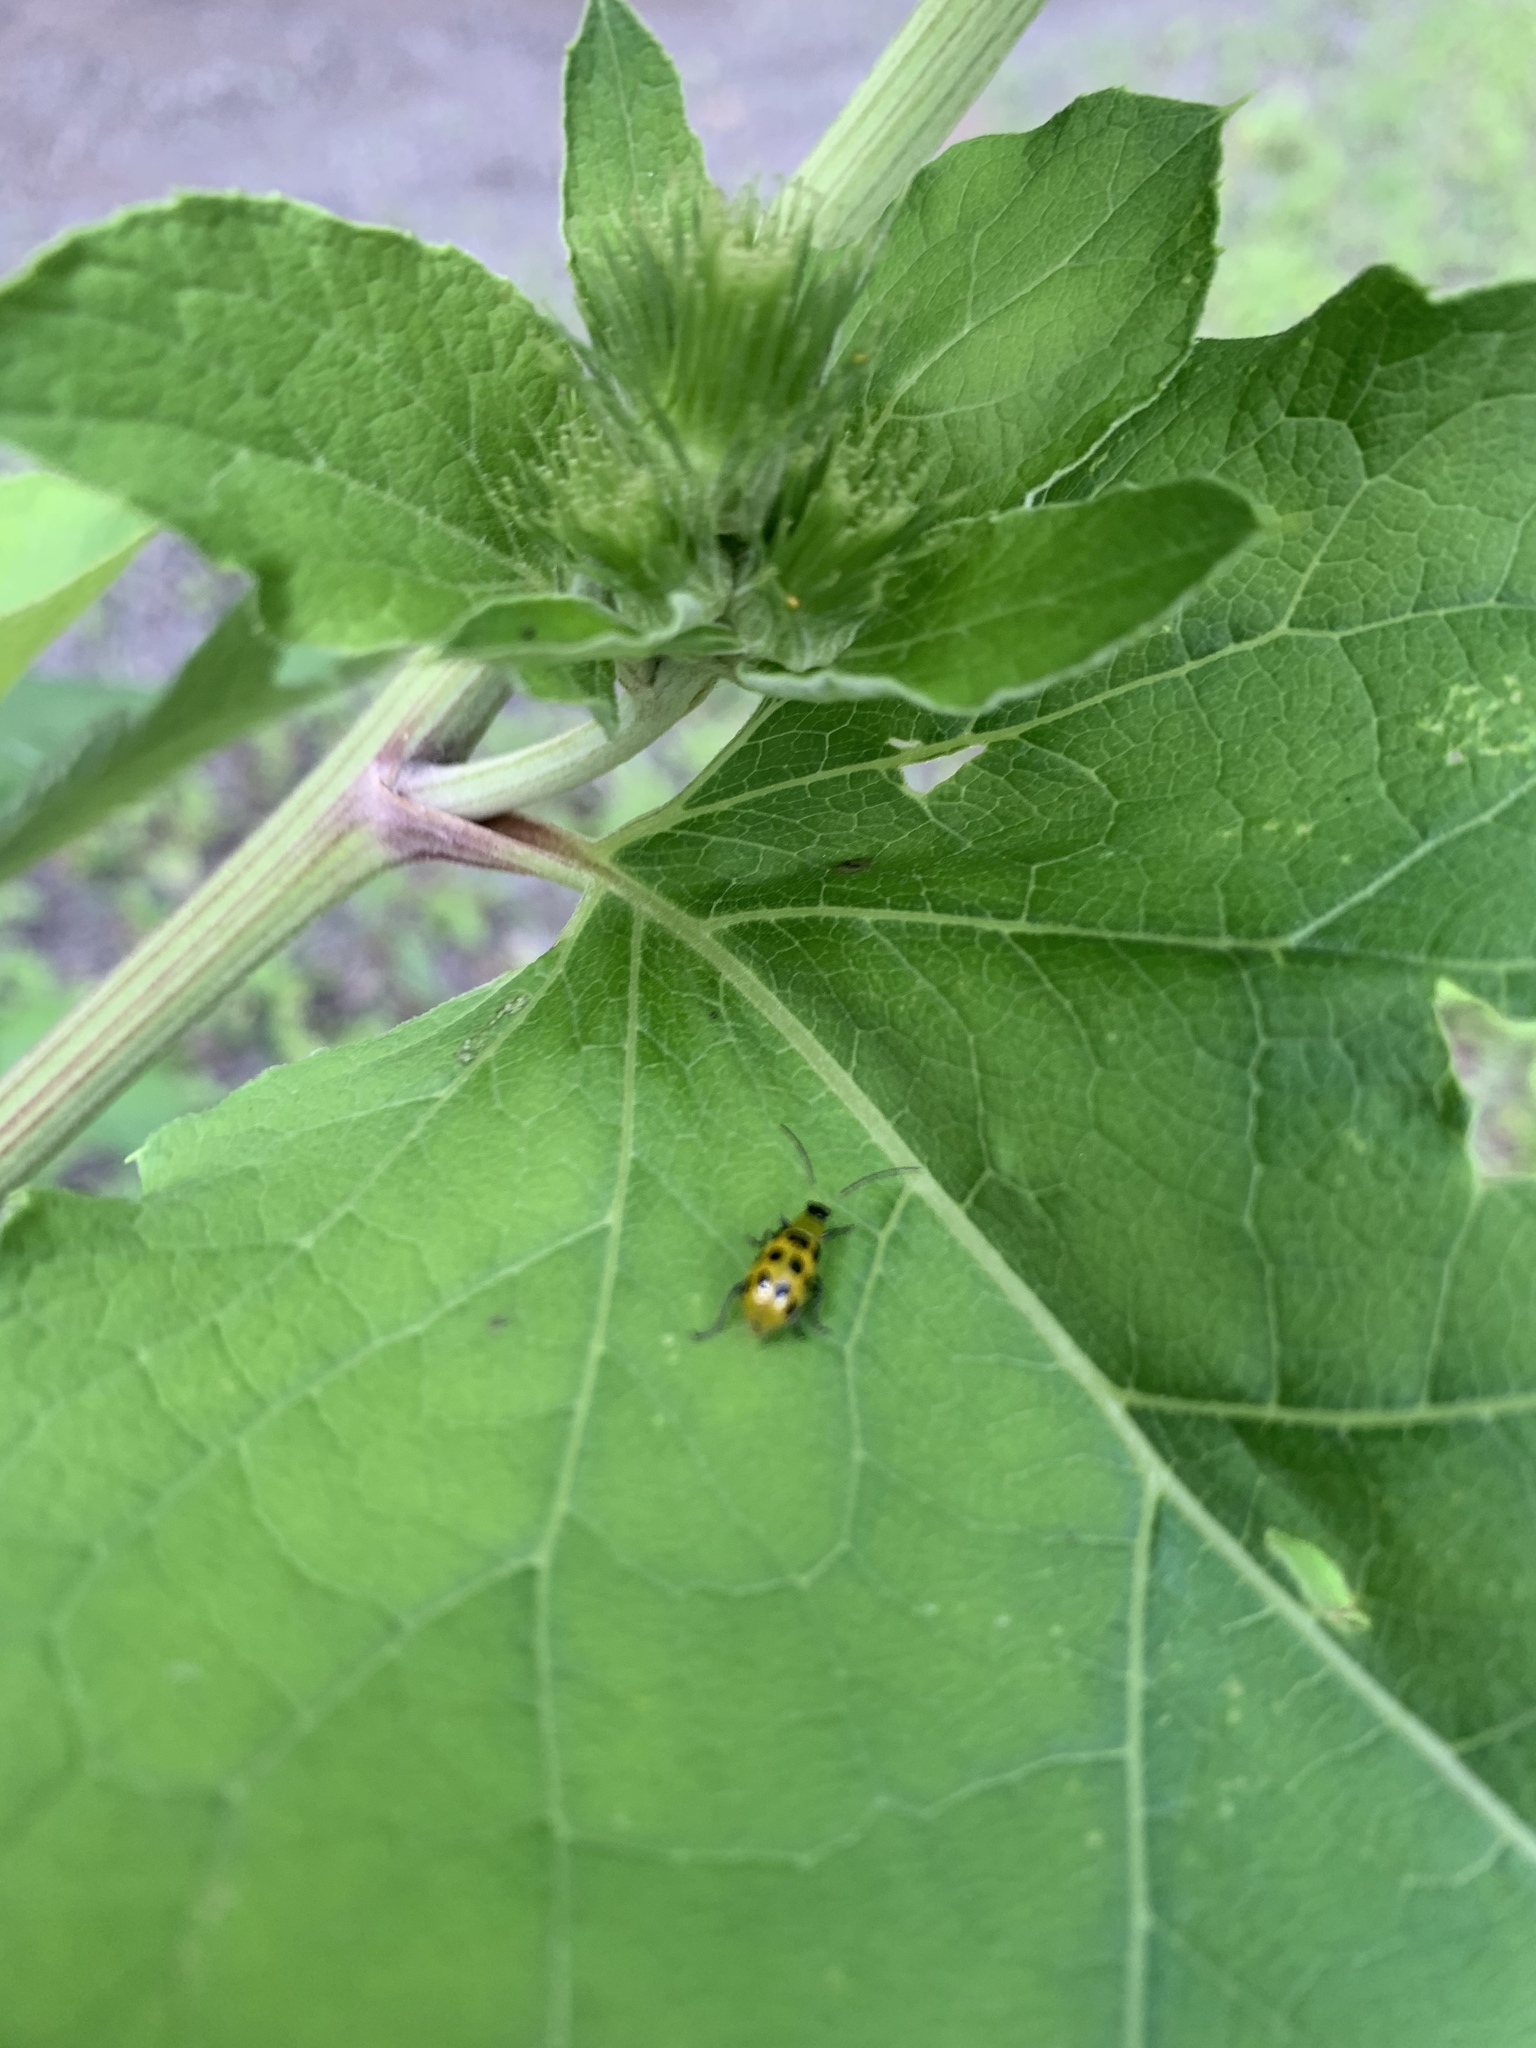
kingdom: Animalia
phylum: Arthropoda
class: Insecta
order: Coleoptera
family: Chrysomelidae
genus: Diabrotica
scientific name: Diabrotica undecimpunctata
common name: Spotted cucumber beetle
